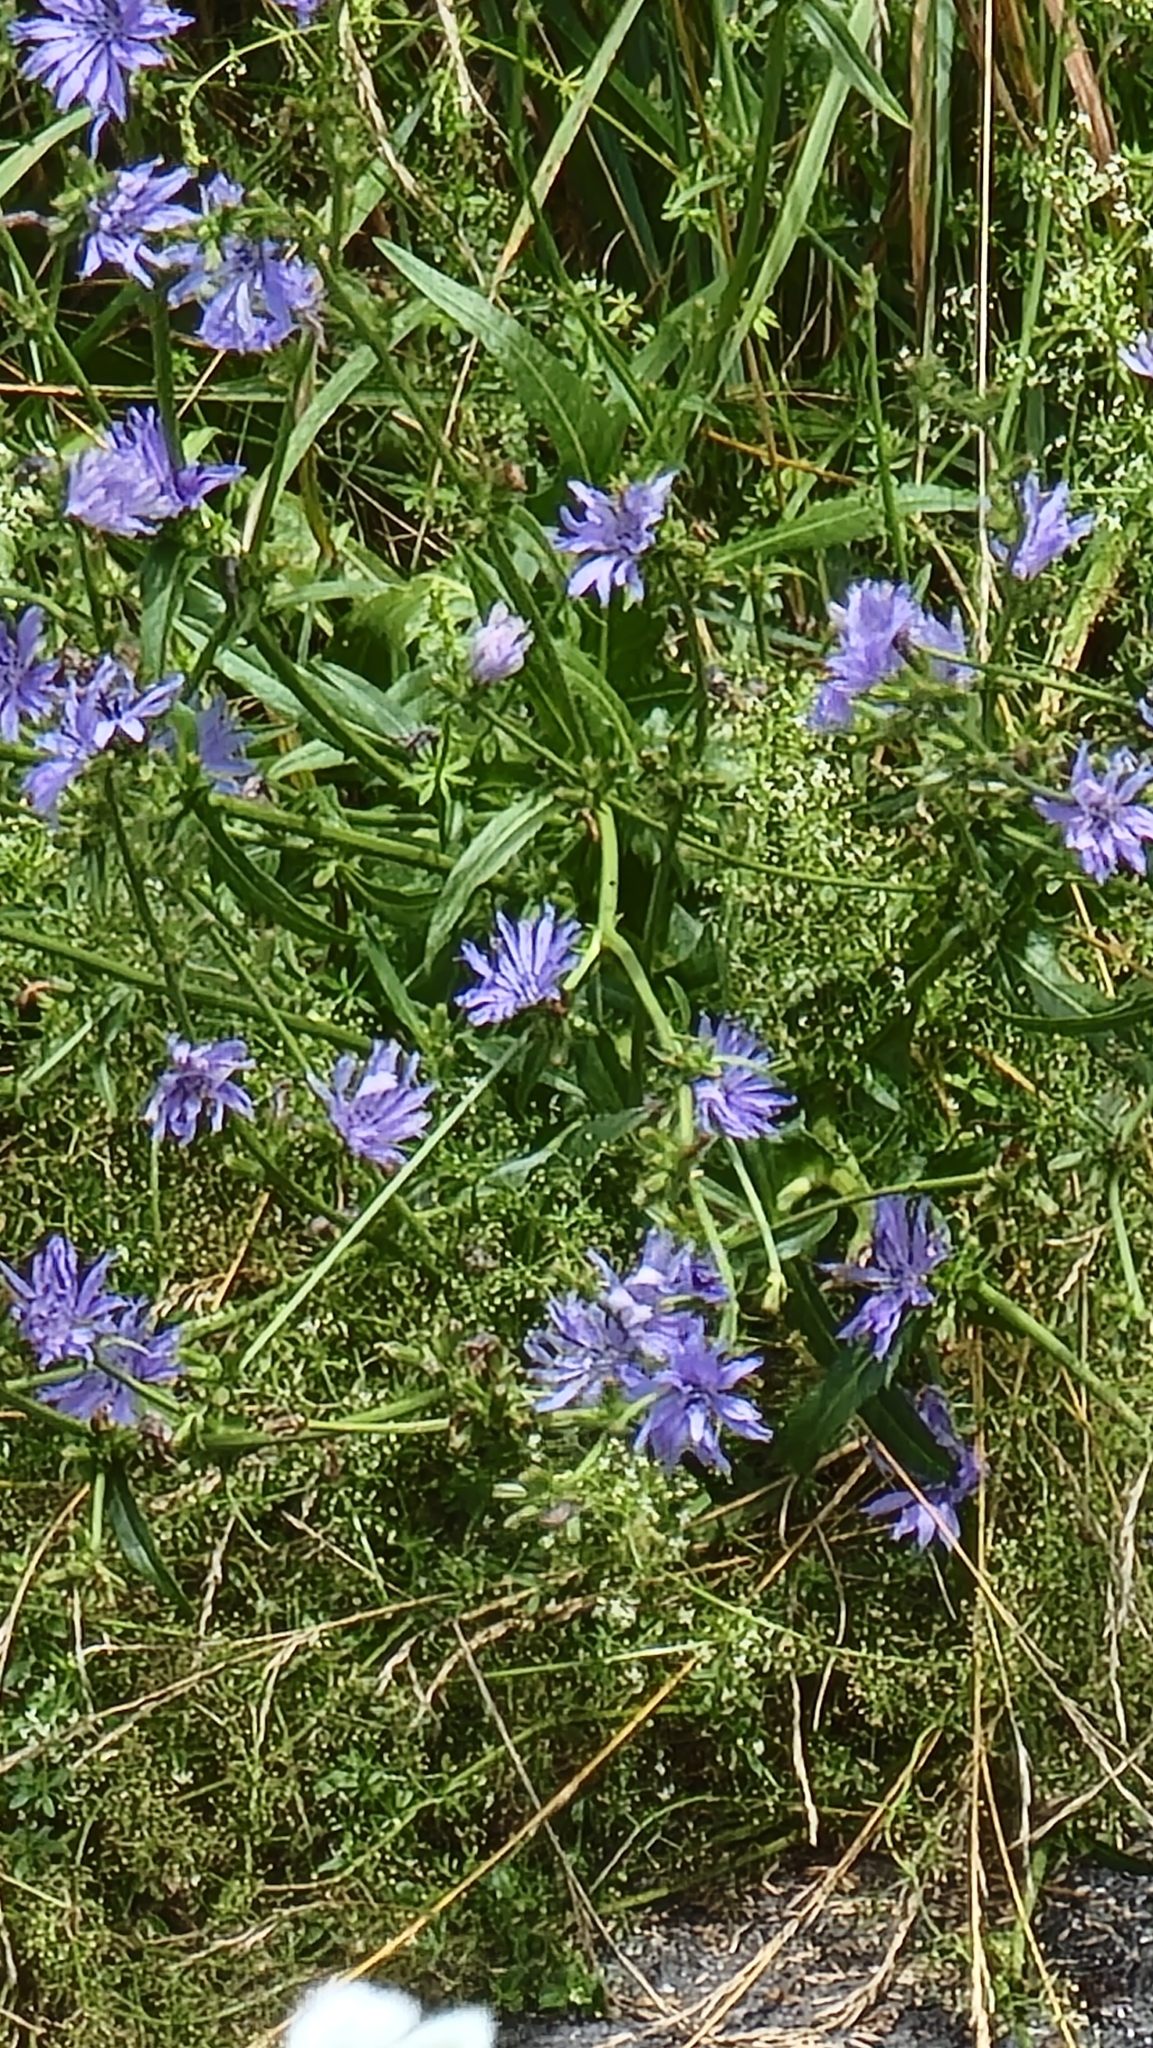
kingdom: Plantae
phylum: Tracheophyta
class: Magnoliopsida
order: Asterales
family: Asteraceae
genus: Cichorium
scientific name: Cichorium intybus
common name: Chicory
